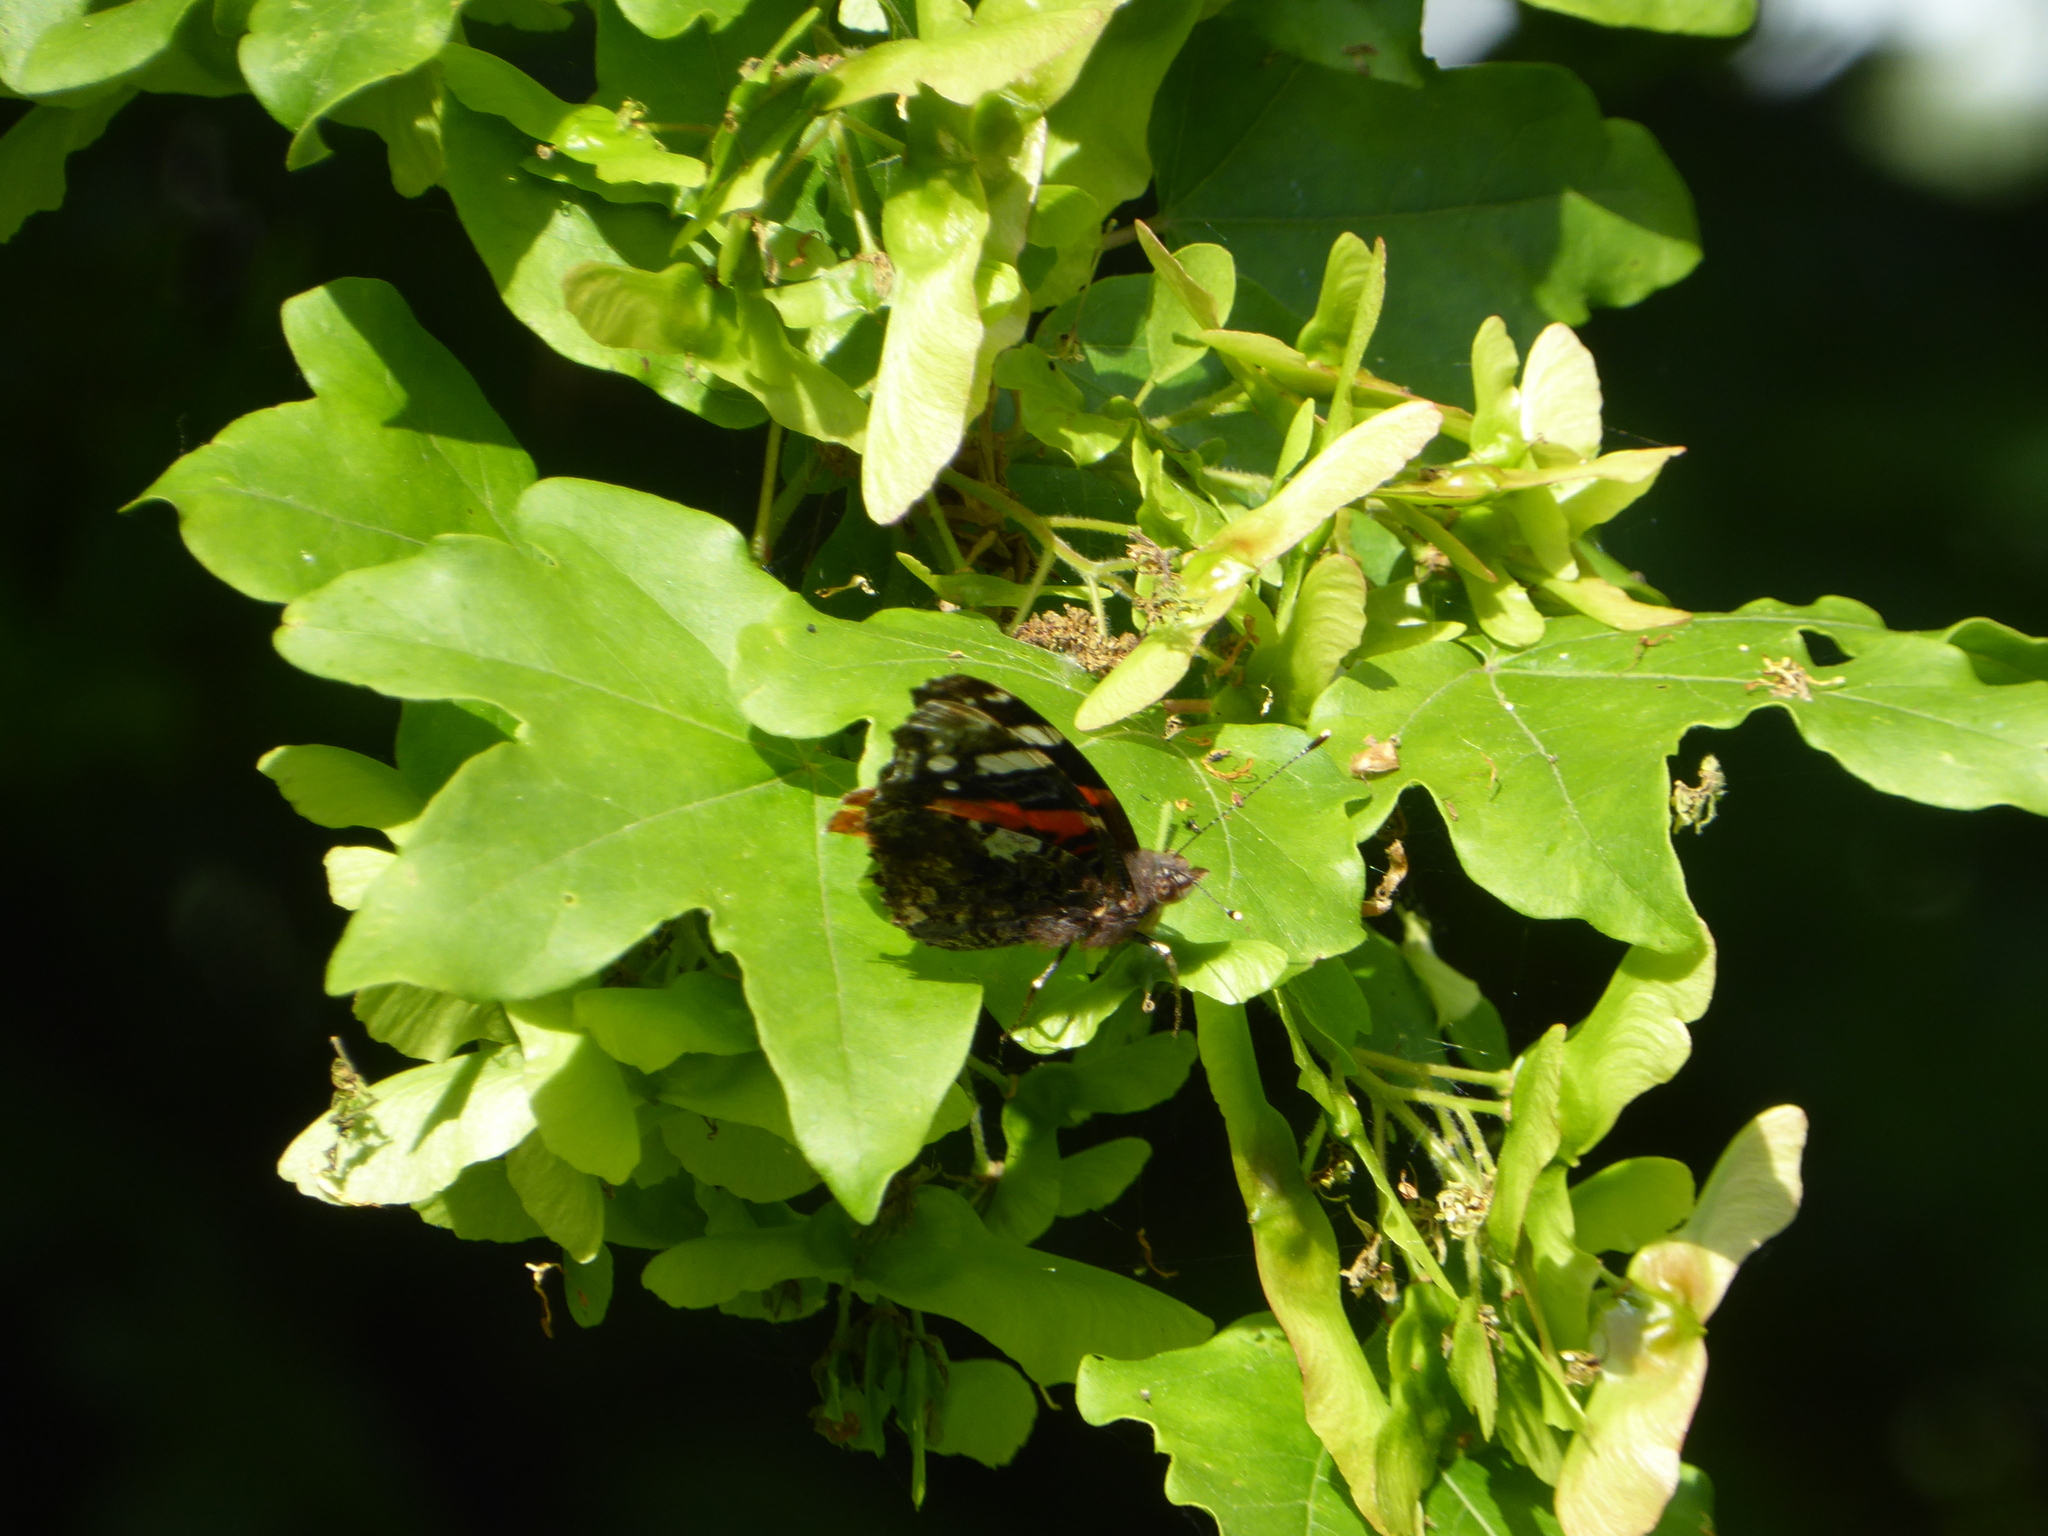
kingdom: Animalia
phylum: Arthropoda
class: Insecta
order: Lepidoptera
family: Nymphalidae
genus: Vanessa
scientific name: Vanessa atalanta
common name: Red admiral
